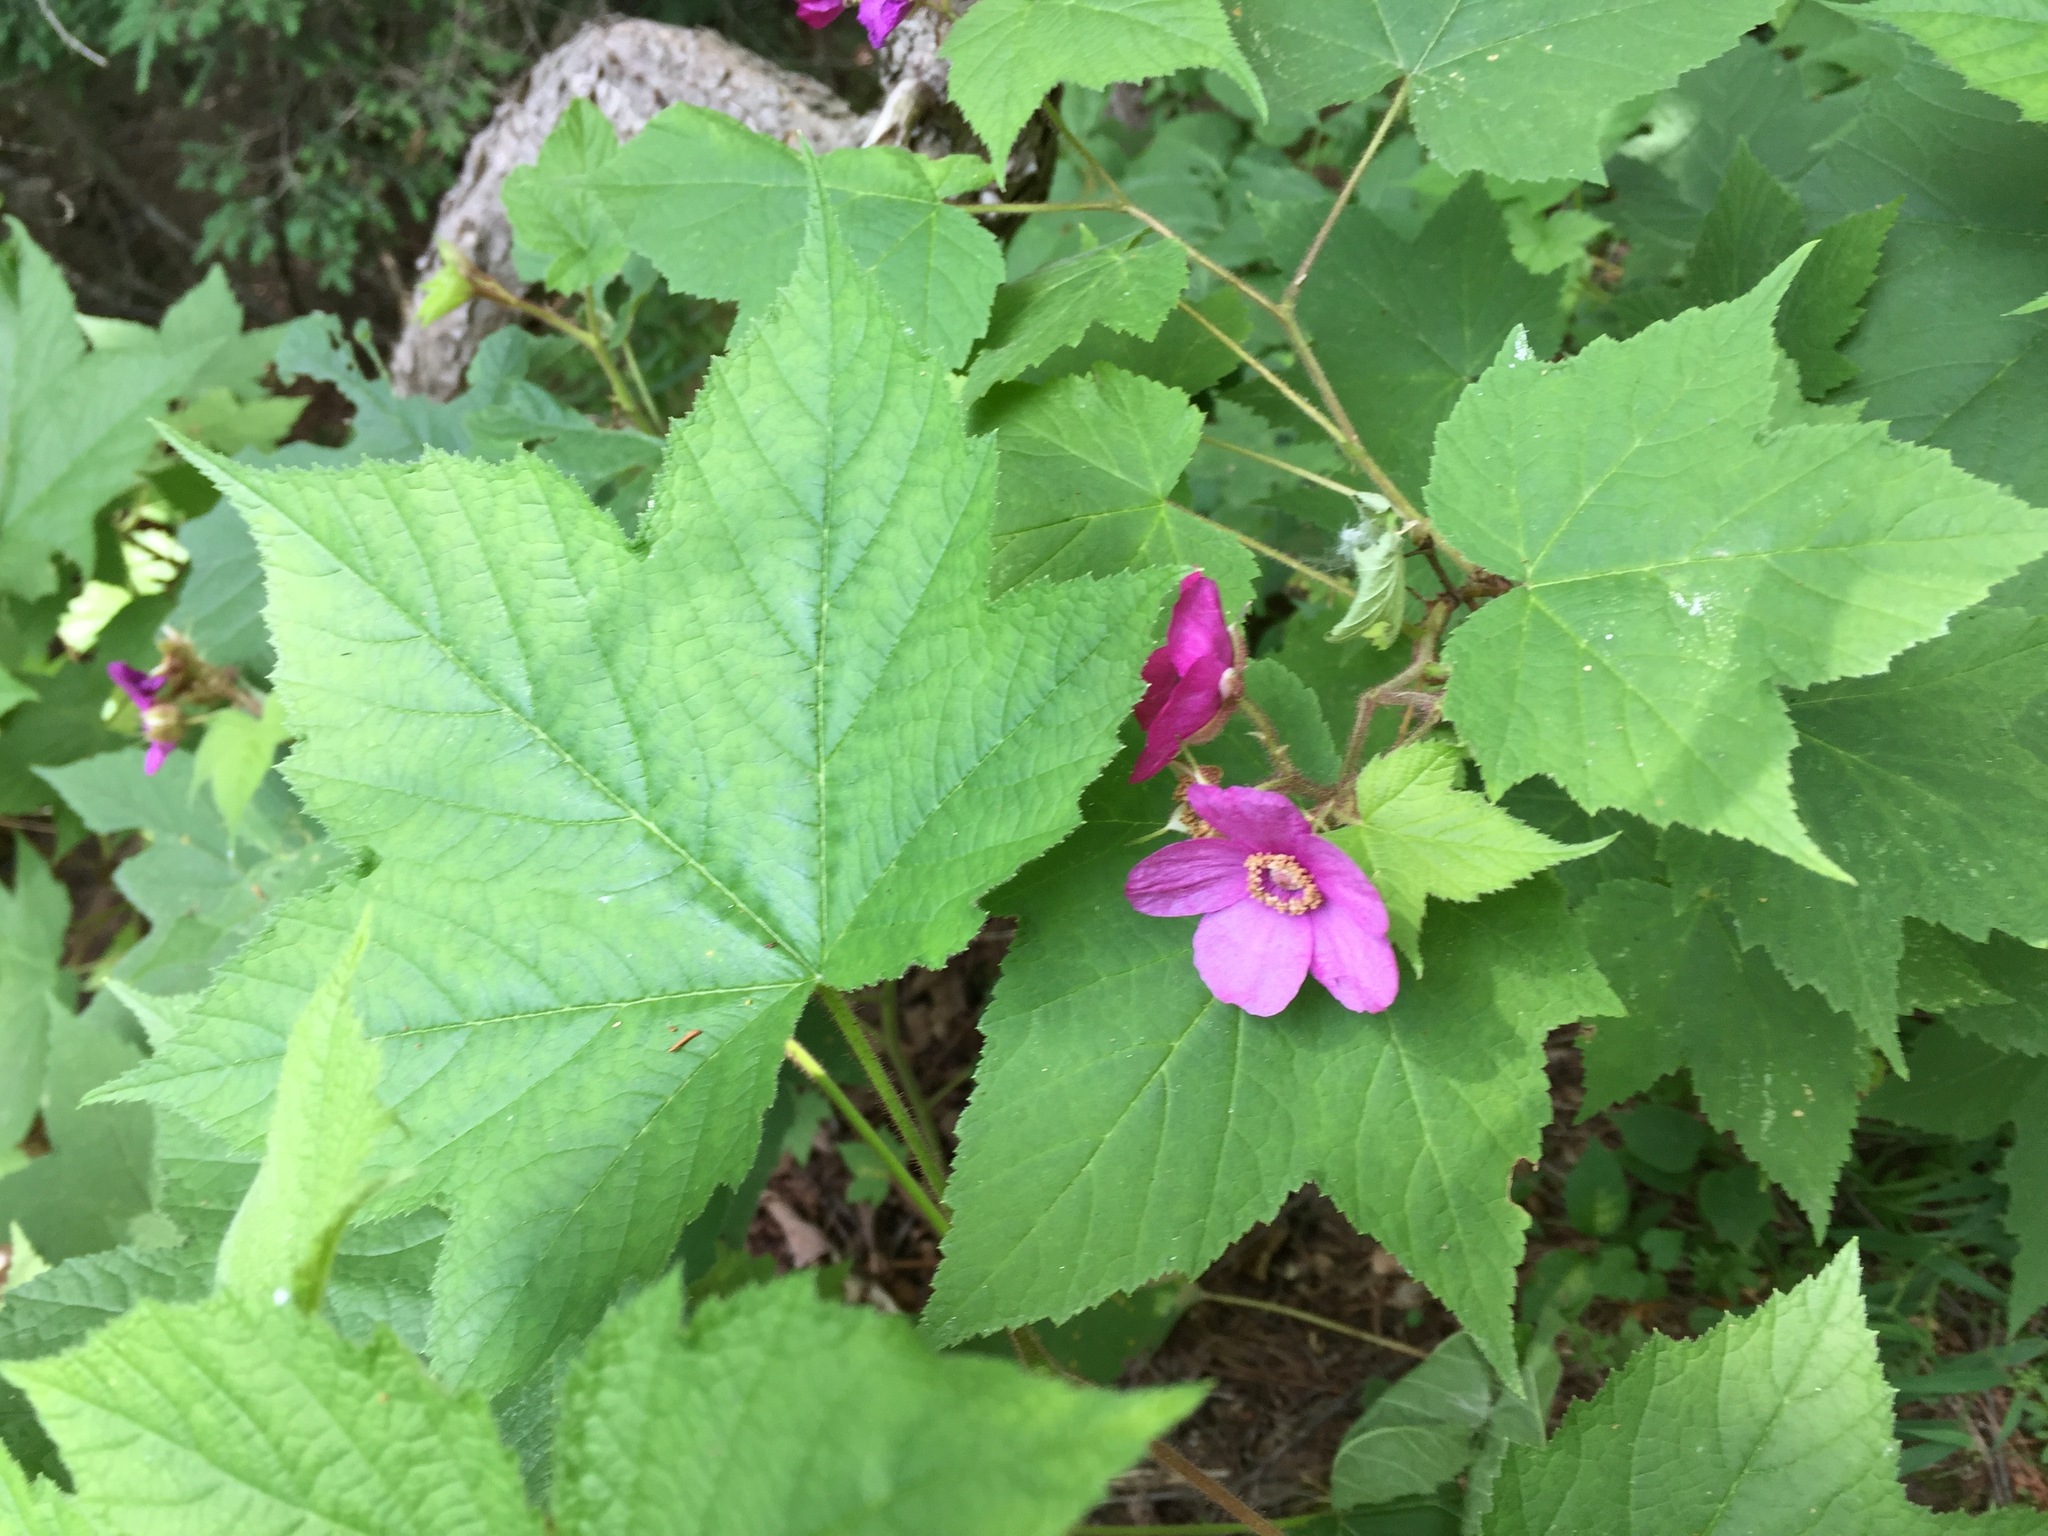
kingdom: Plantae
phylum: Tracheophyta
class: Magnoliopsida
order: Rosales
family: Rosaceae
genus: Rubus
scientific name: Rubus odoratus
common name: Purple-flowered raspberry
